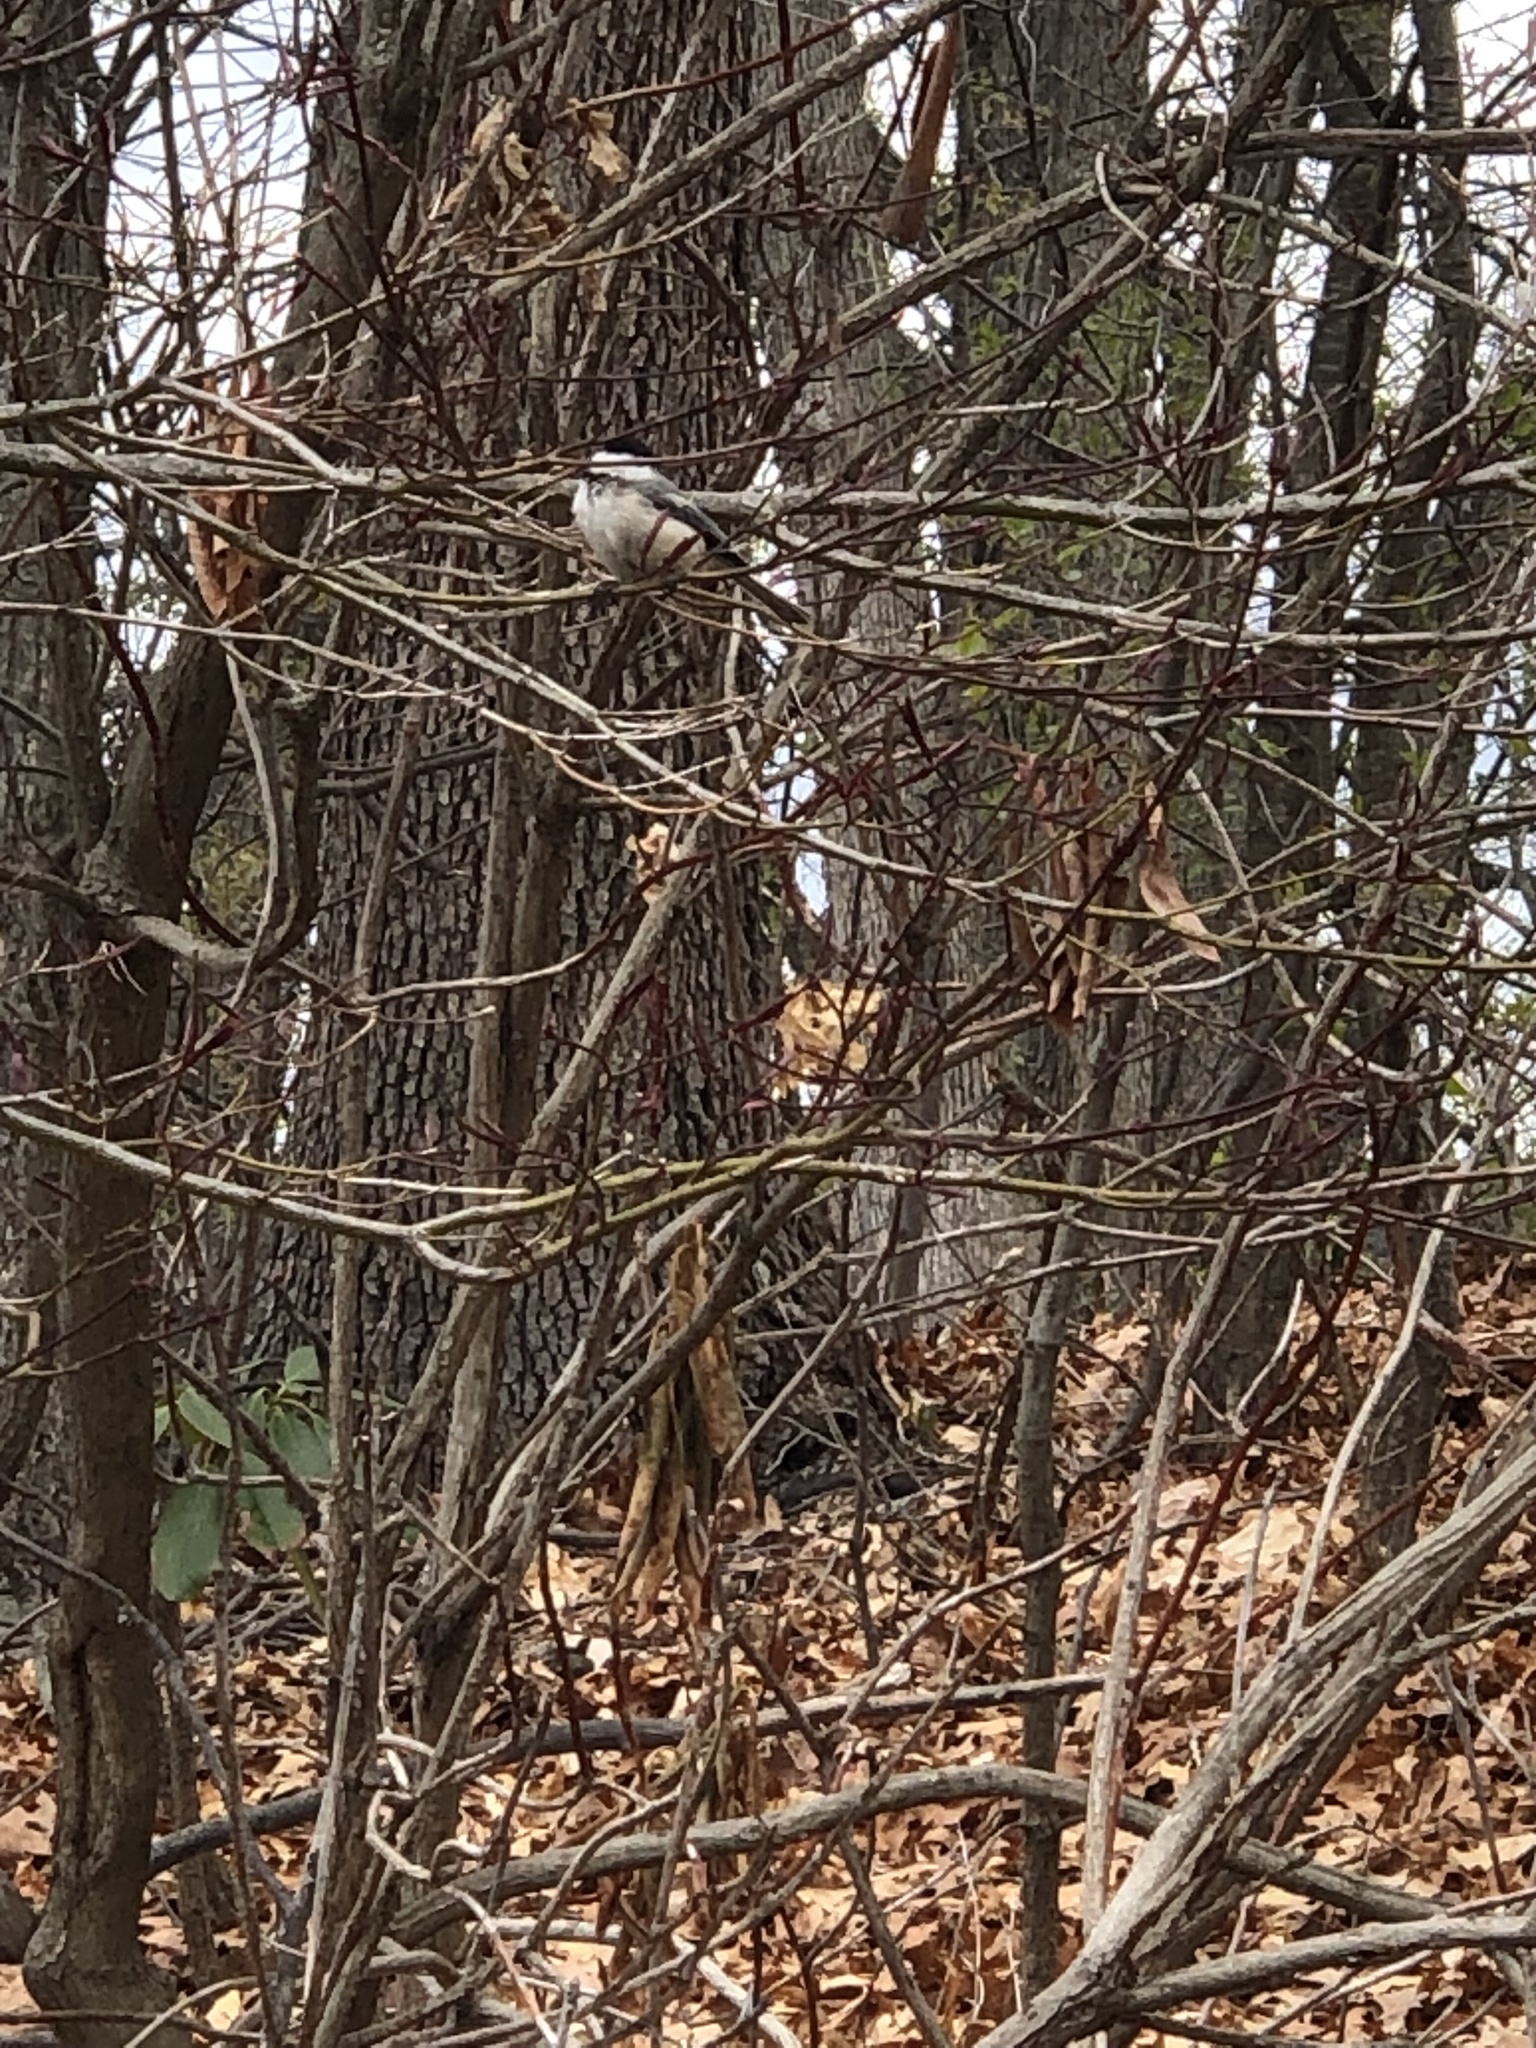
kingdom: Animalia
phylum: Chordata
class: Aves
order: Passeriformes
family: Paridae
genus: Poecile
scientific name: Poecile atricapillus
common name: Black-capped chickadee
